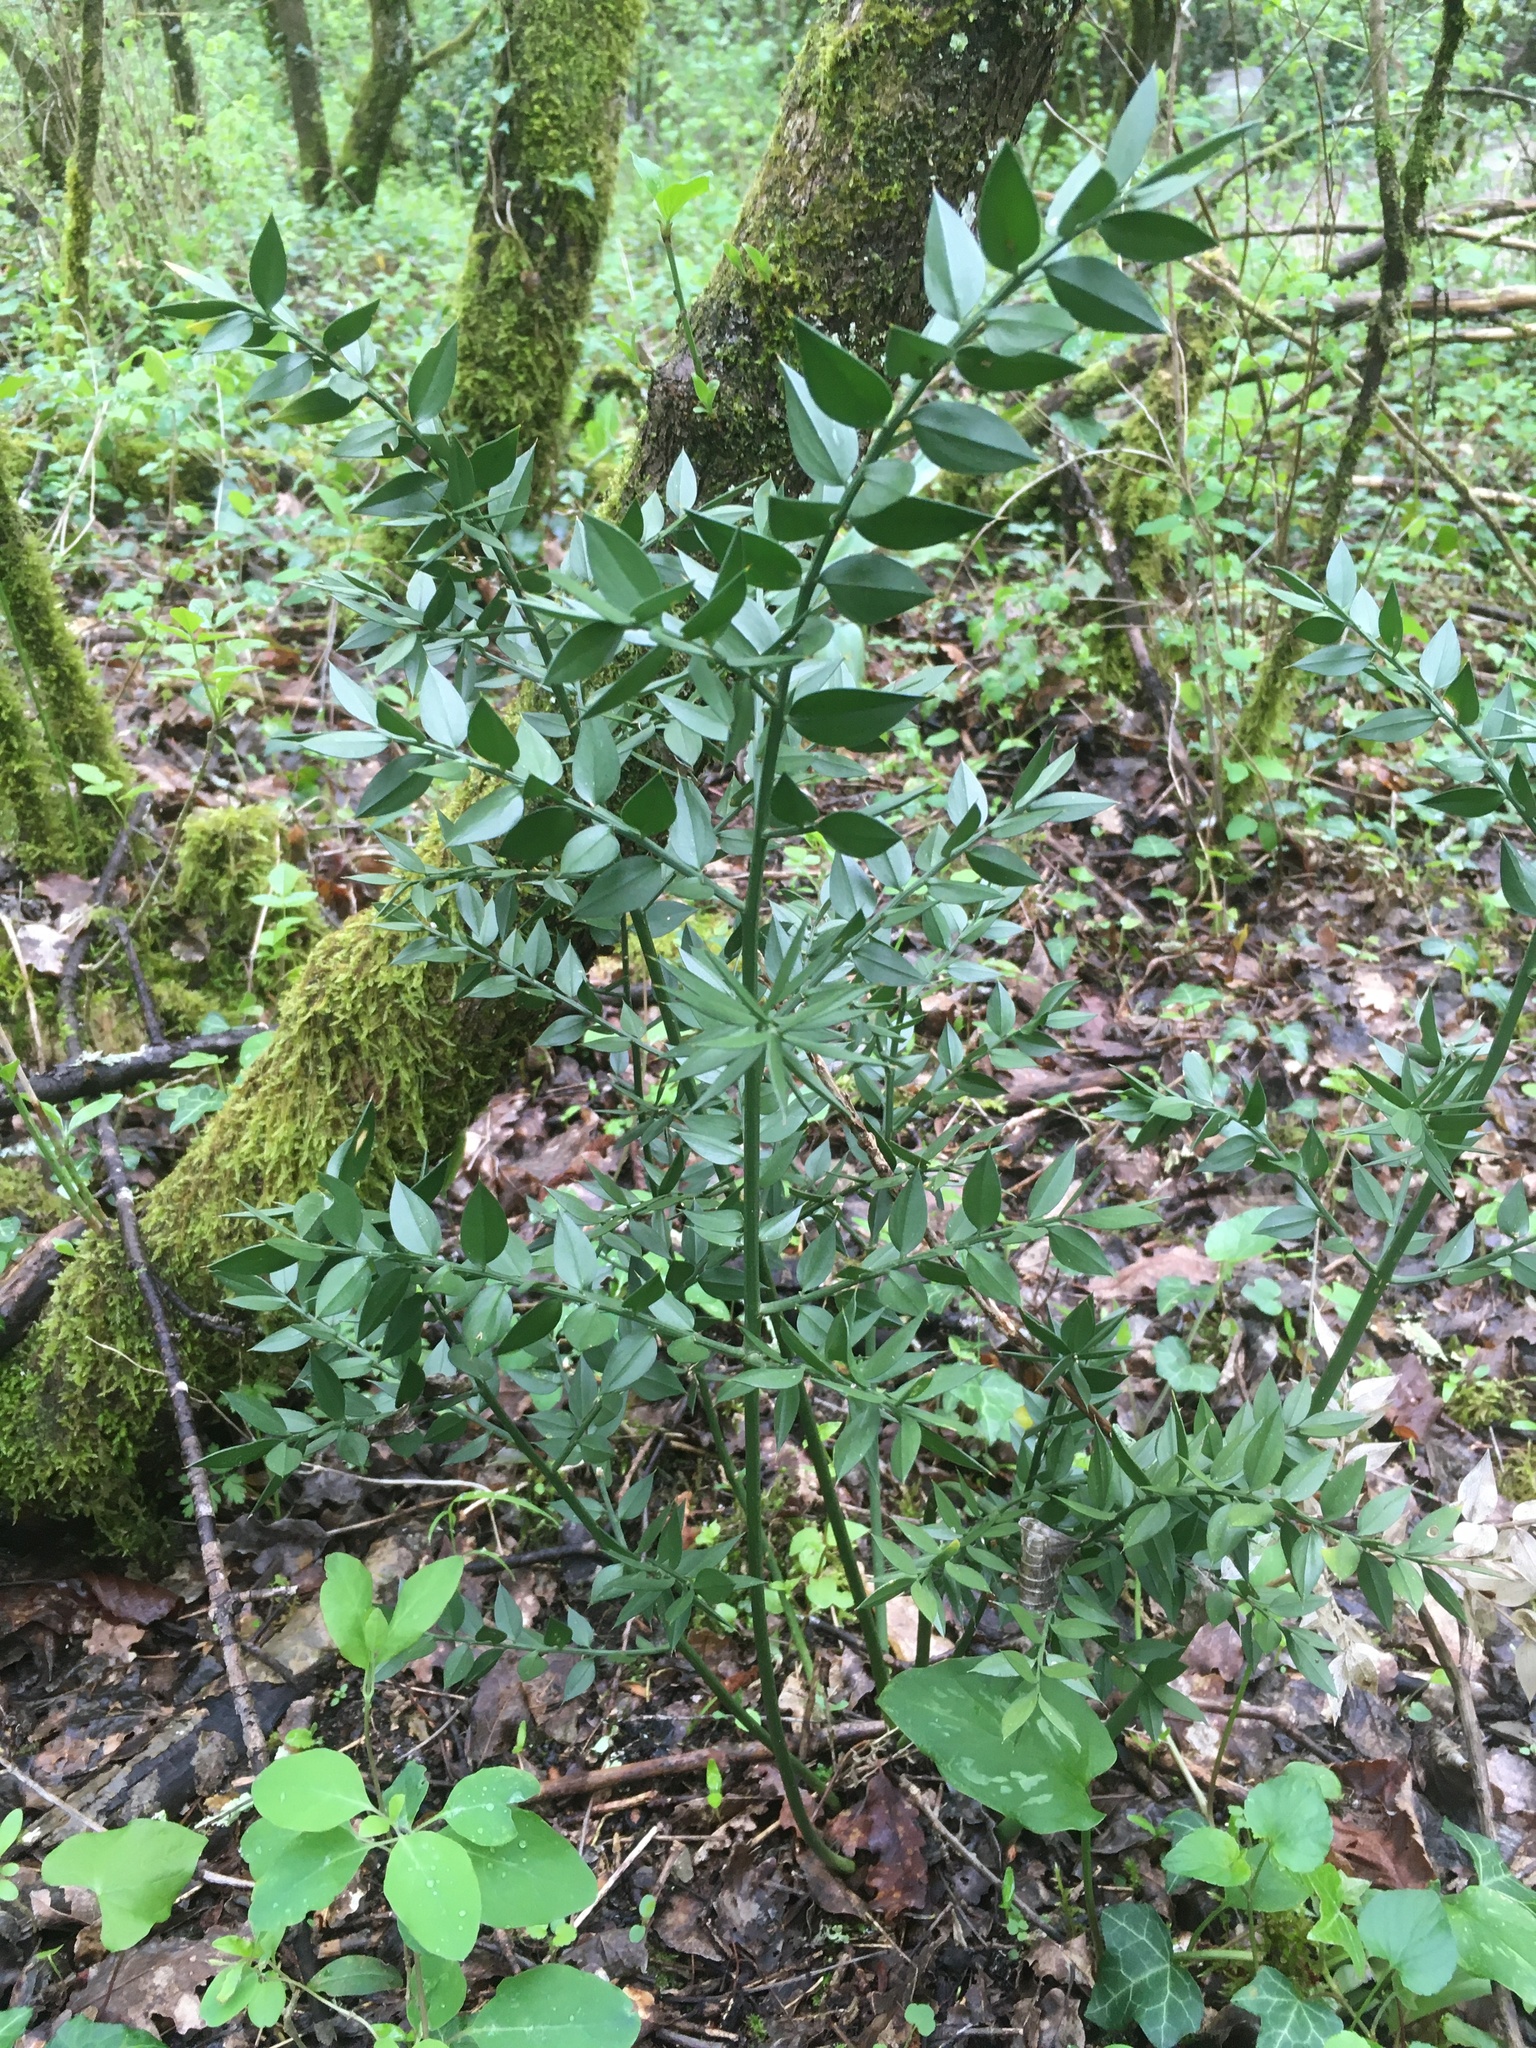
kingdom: Plantae
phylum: Tracheophyta
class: Liliopsida
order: Asparagales
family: Asparagaceae
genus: Ruscus
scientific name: Ruscus aculeatus
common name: Butcher's-broom
